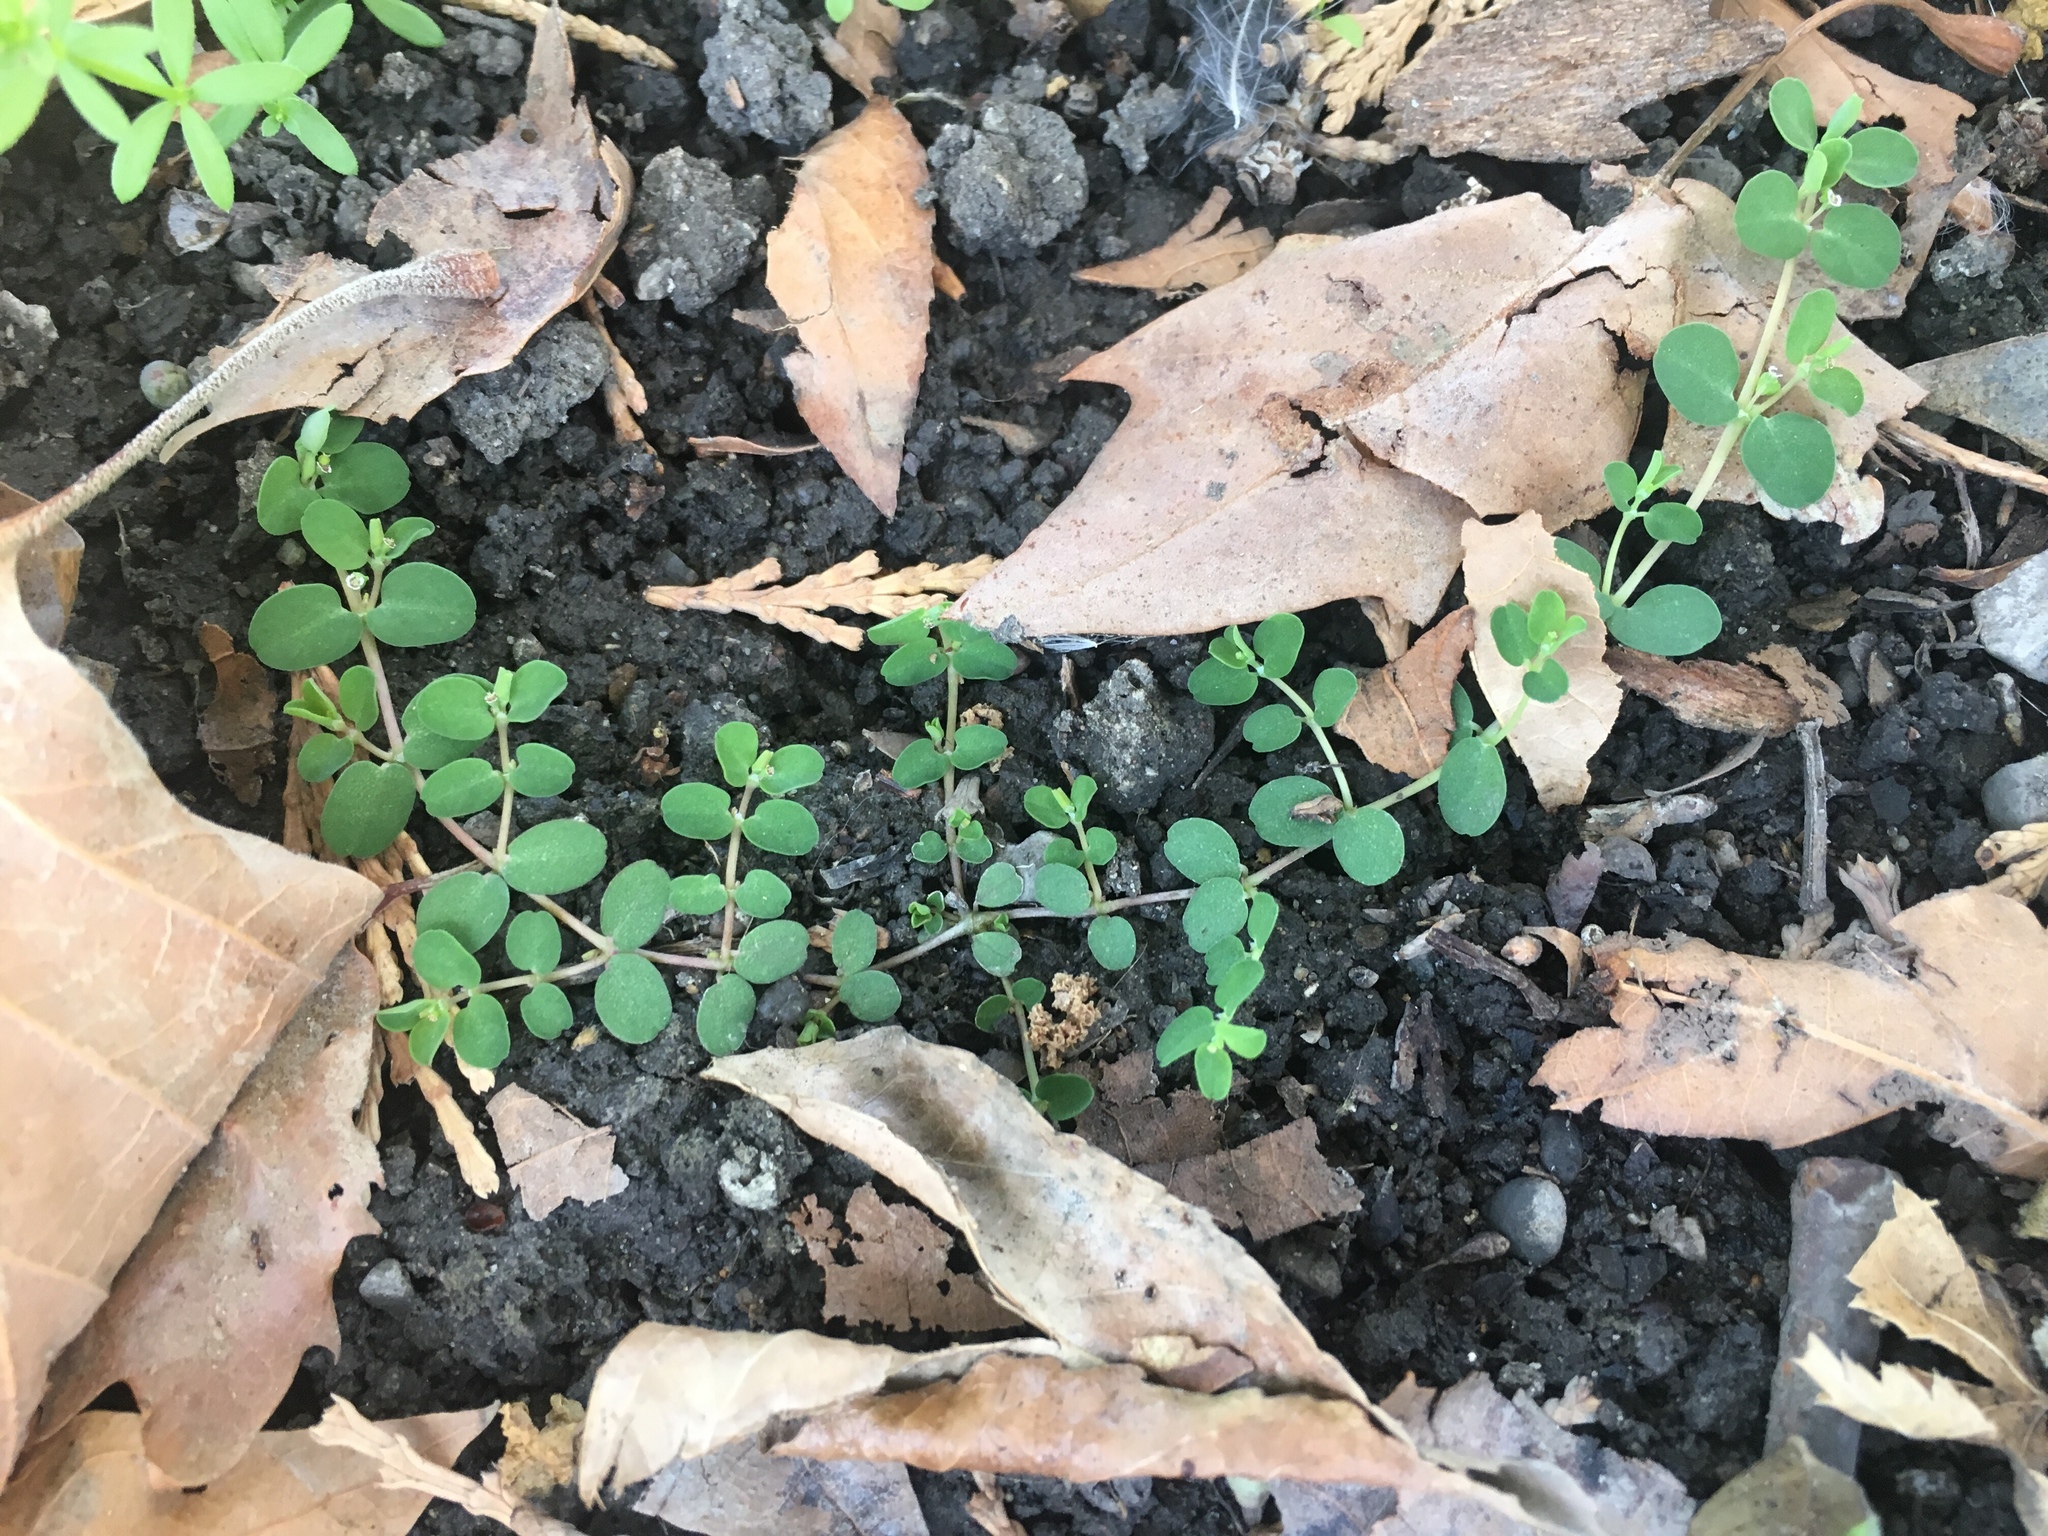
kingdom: Plantae
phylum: Tracheophyta
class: Magnoliopsida
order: Malpighiales
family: Euphorbiaceae
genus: Euphorbia
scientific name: Euphorbia serpens
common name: Matted sandmat
